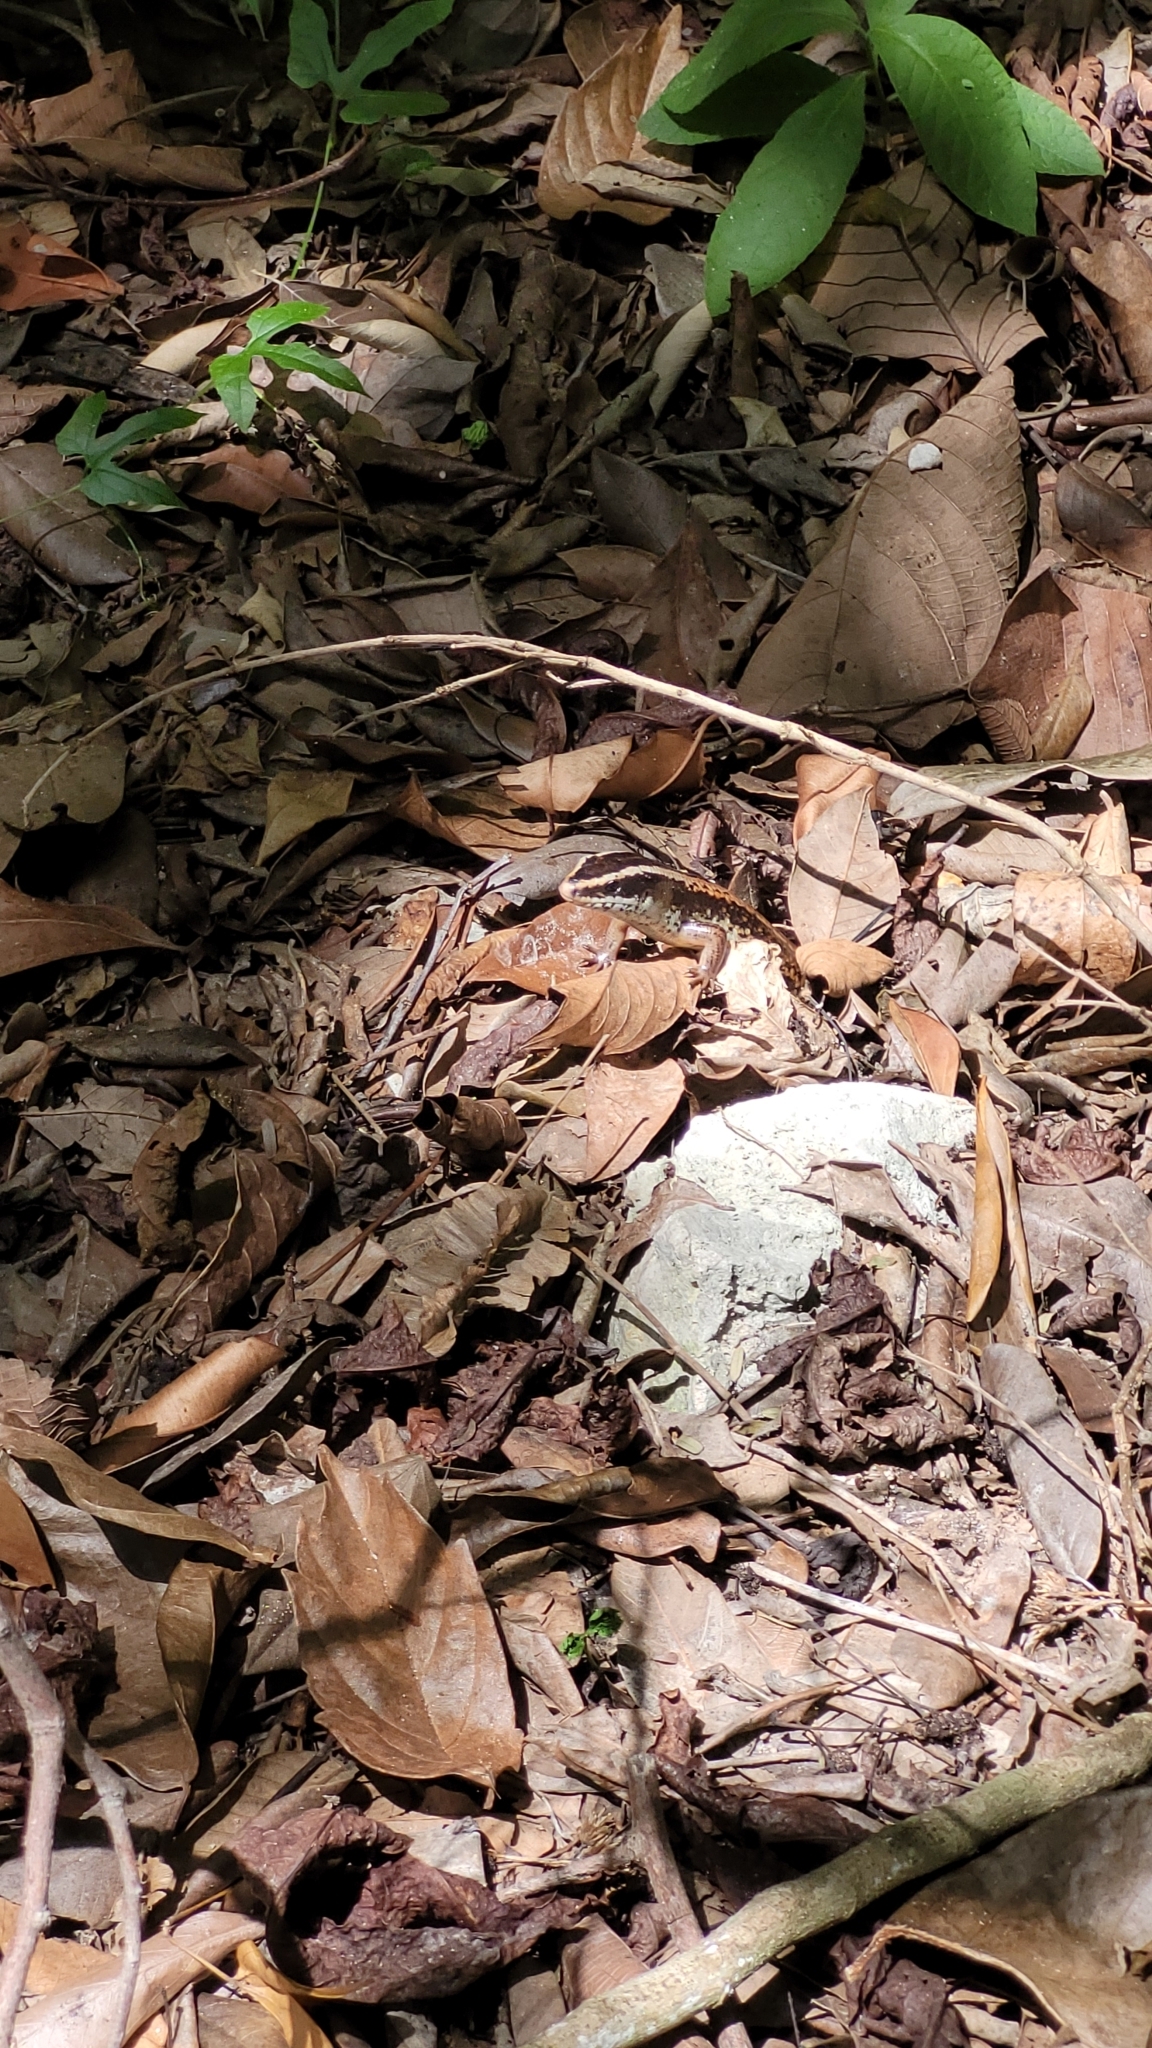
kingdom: Animalia
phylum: Chordata
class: Squamata
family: Scincidae
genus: Mesoscincus
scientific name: Mesoscincus schwartzei
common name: Mayan black-headed skink
